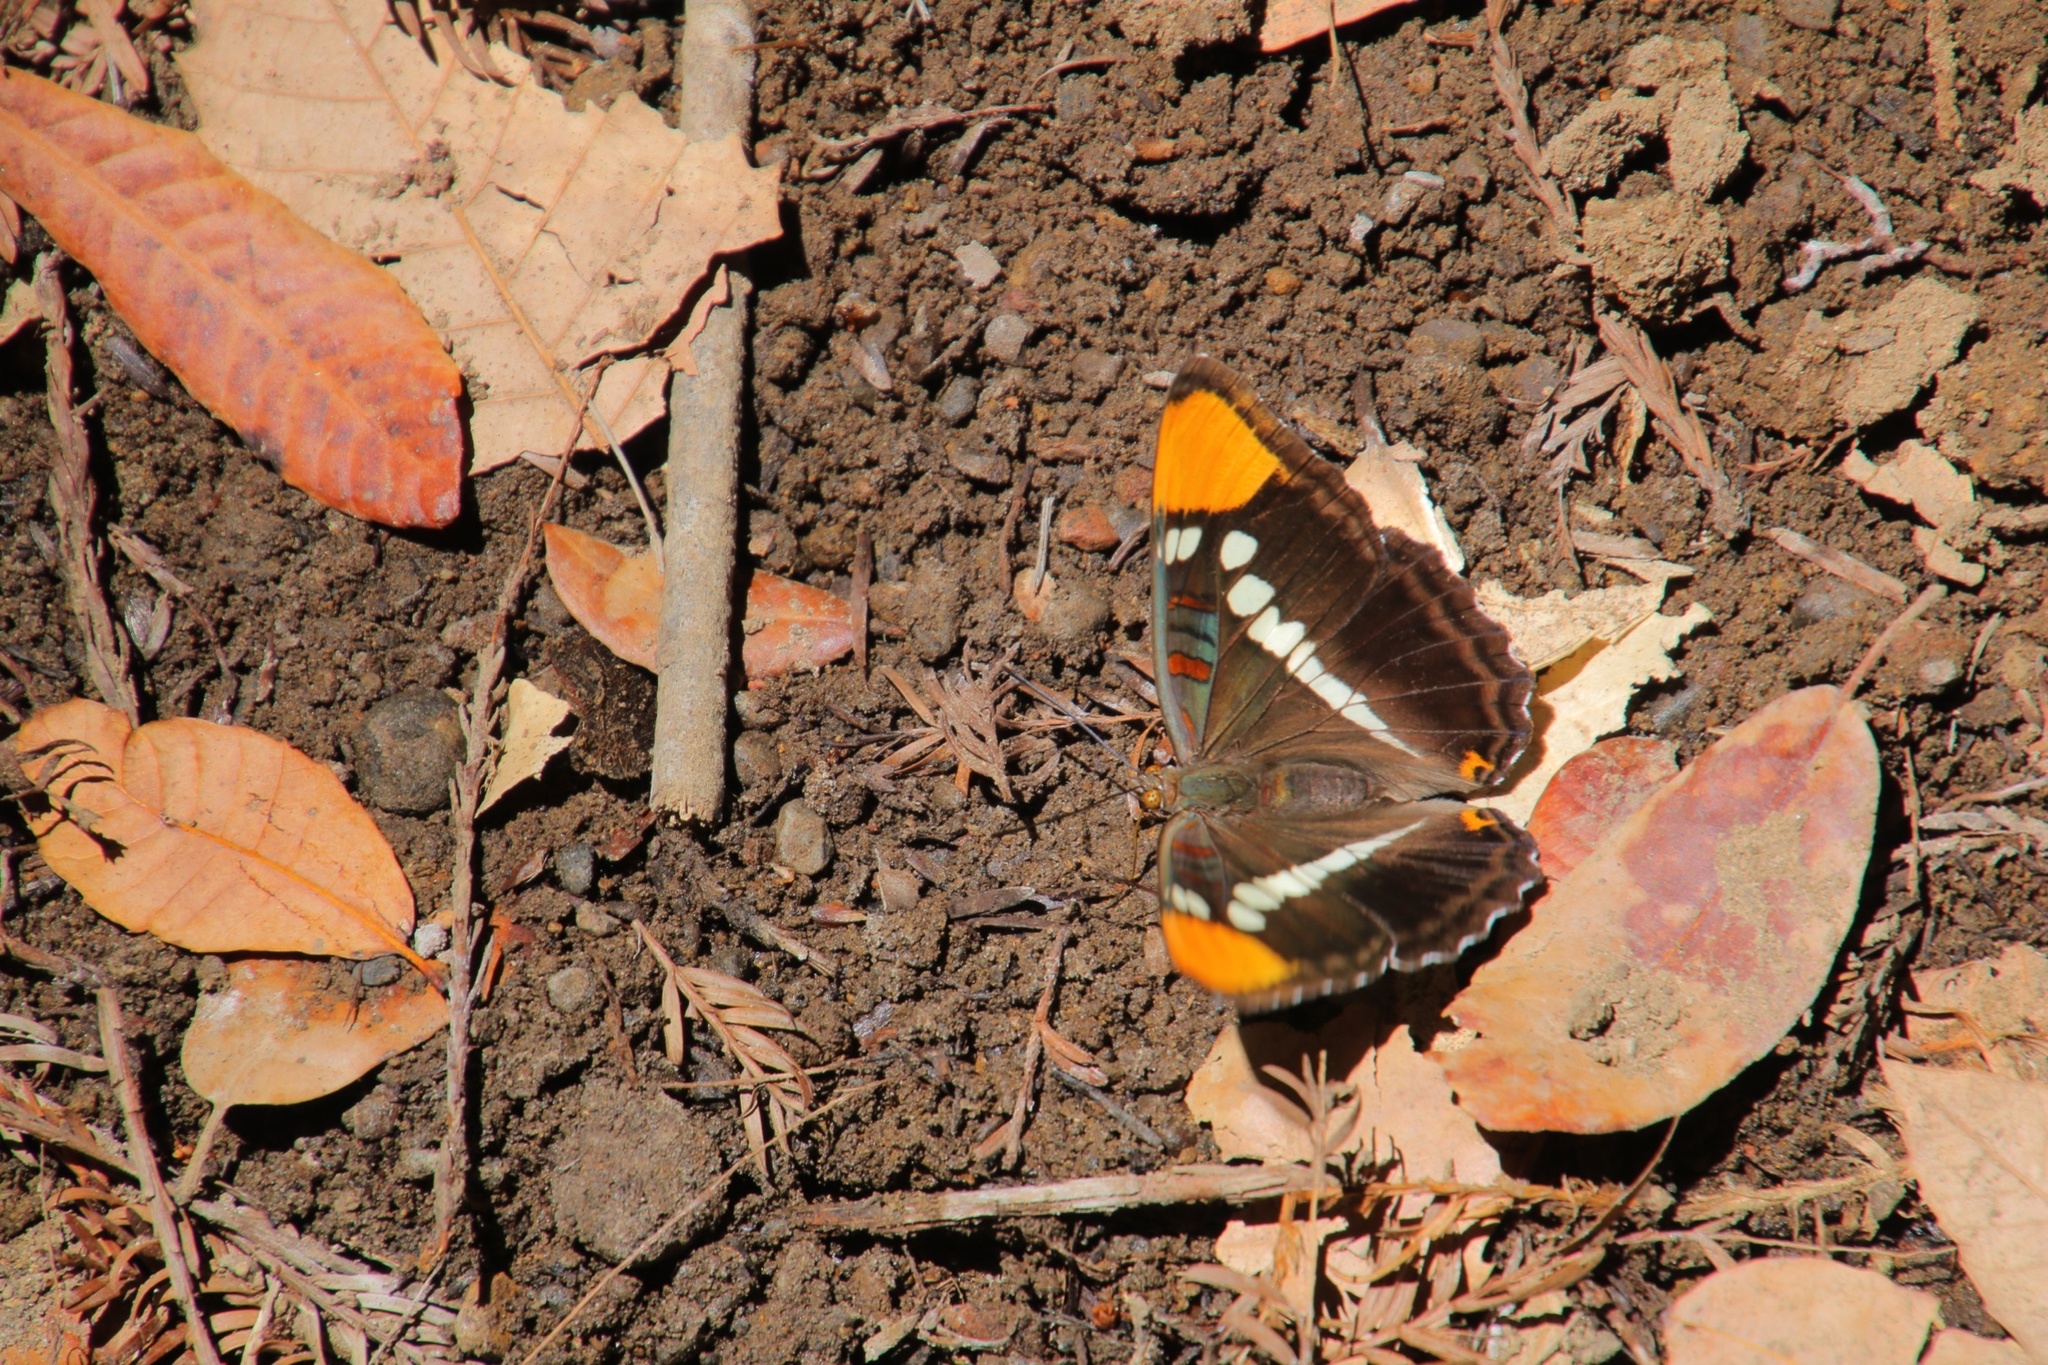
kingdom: Animalia
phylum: Arthropoda
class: Insecta
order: Lepidoptera
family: Nymphalidae
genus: Limenitis
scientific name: Limenitis bredowii
